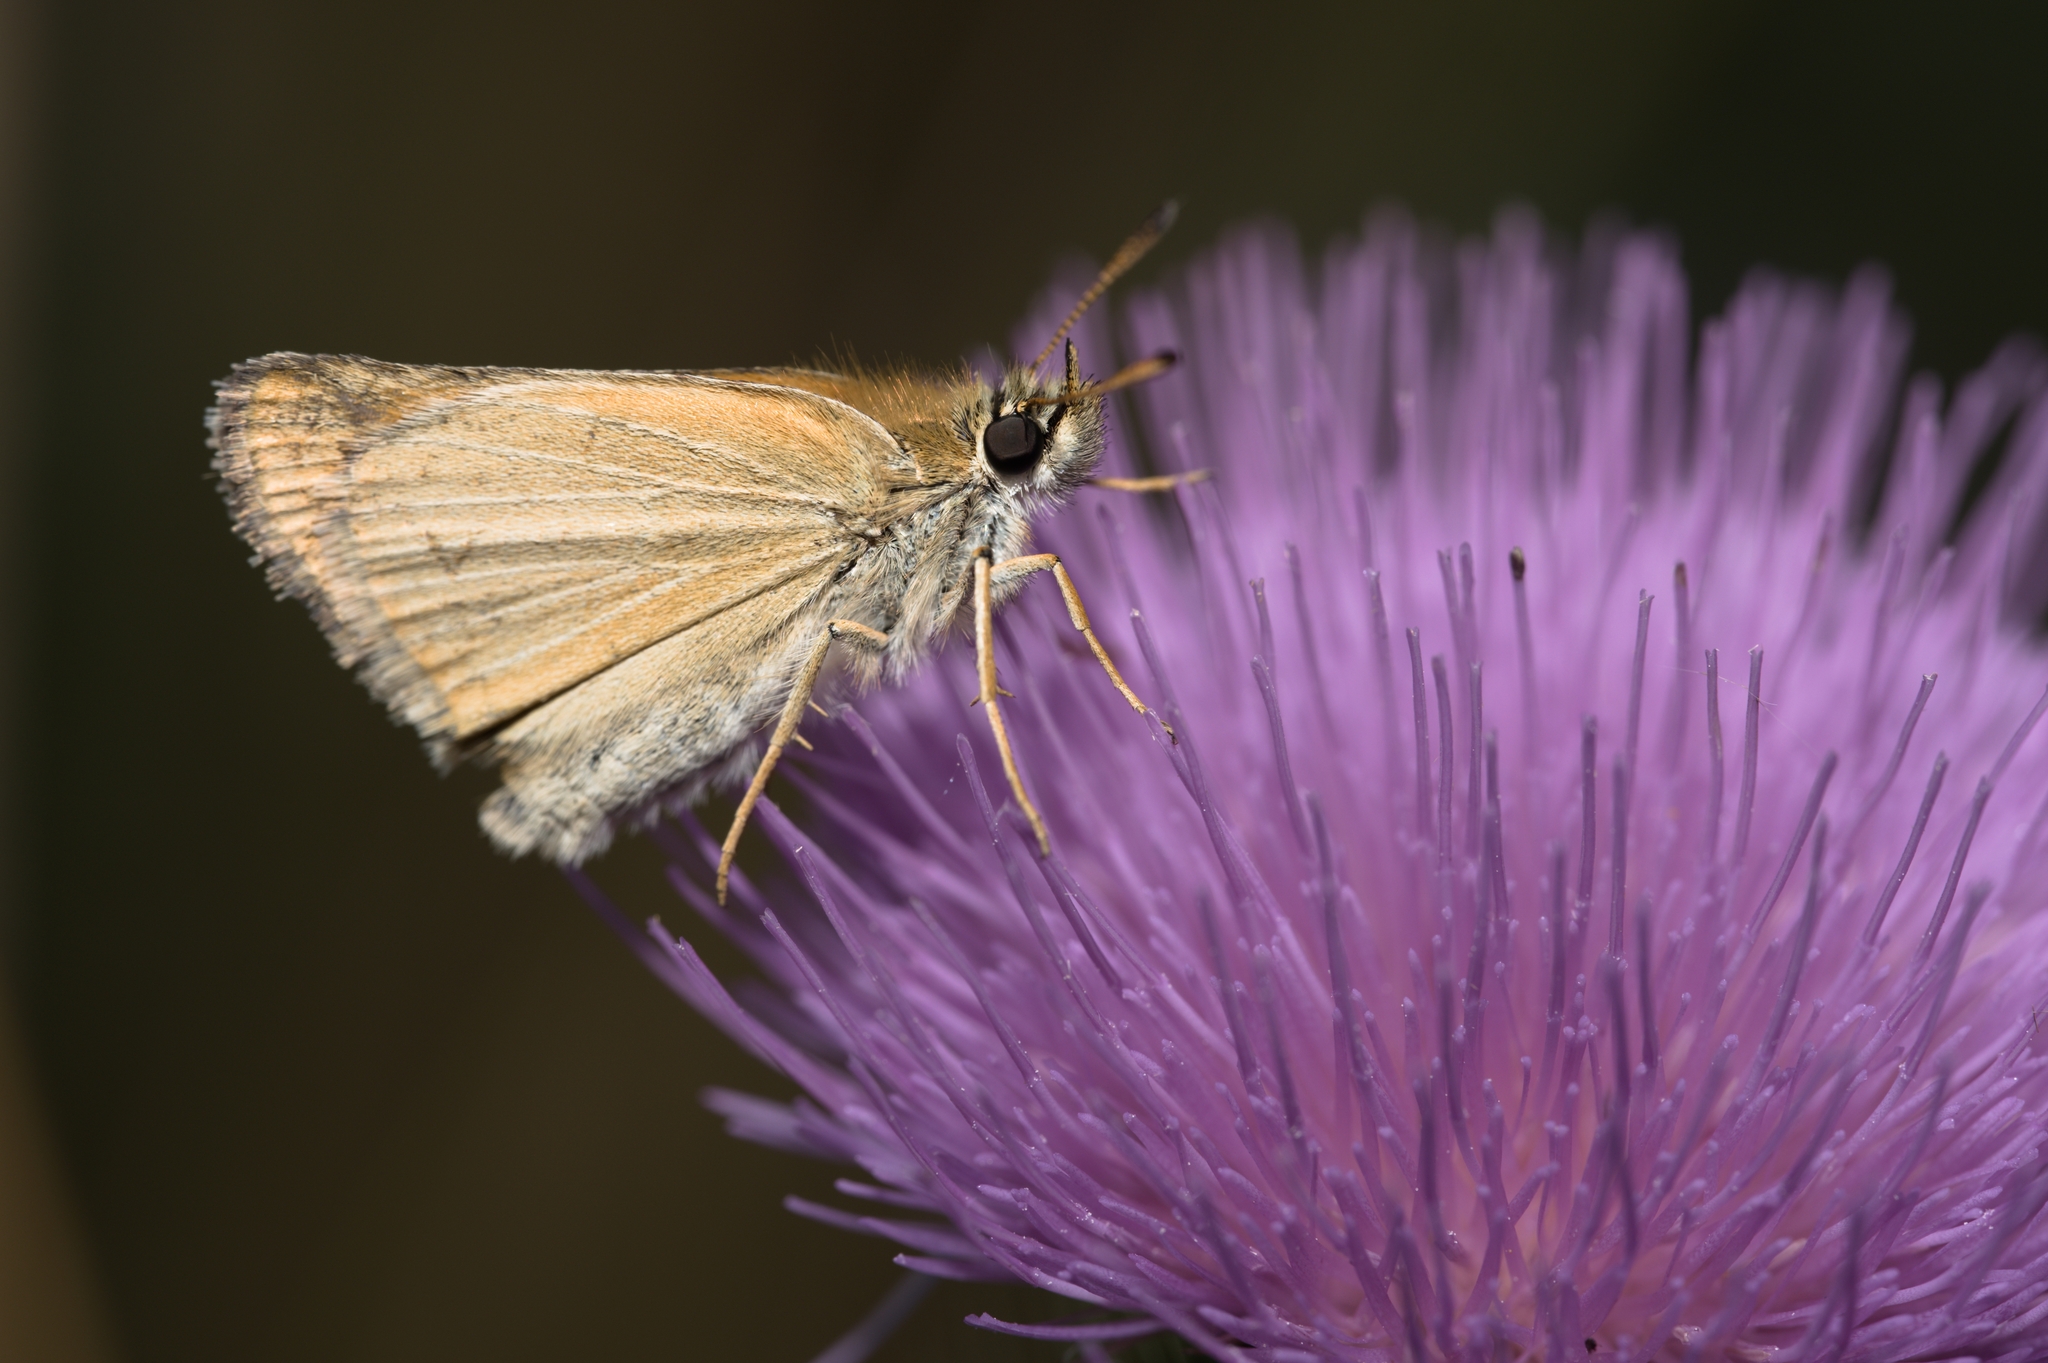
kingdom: Animalia
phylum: Arthropoda
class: Insecta
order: Lepidoptera
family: Hesperiidae
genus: Thymelicus
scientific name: Thymelicus lineola
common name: Essex skipper
